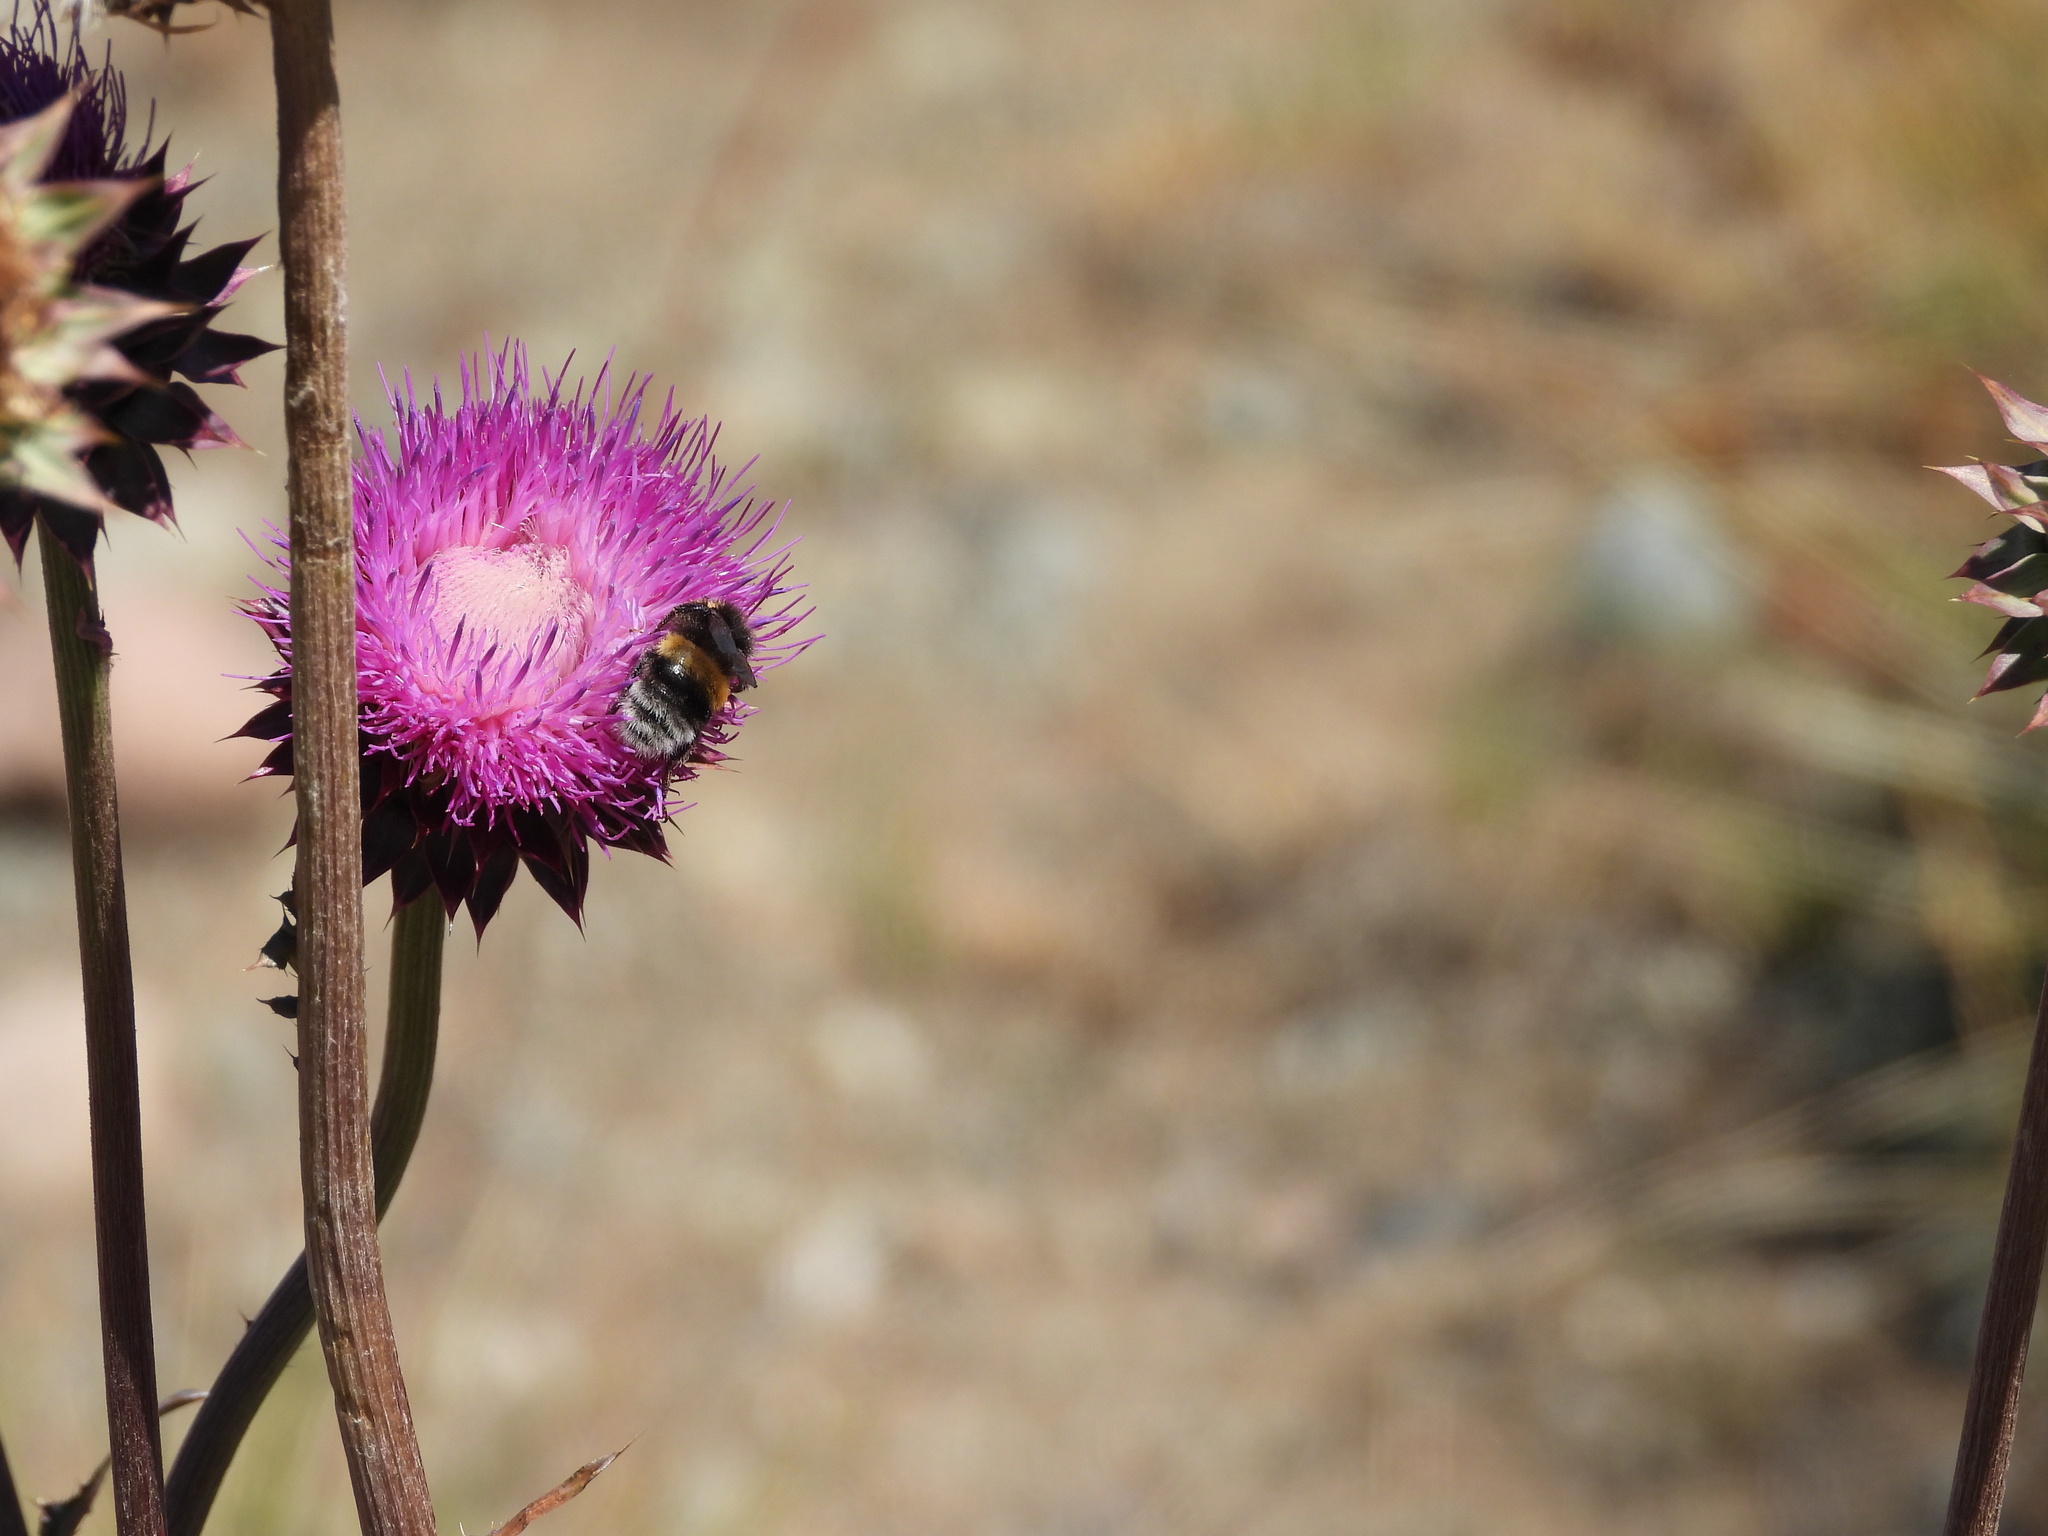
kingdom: Animalia
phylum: Arthropoda
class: Insecta
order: Hymenoptera
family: Apidae
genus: Bombus
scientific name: Bombus terrestris
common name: Buff-tailed bumblebee
